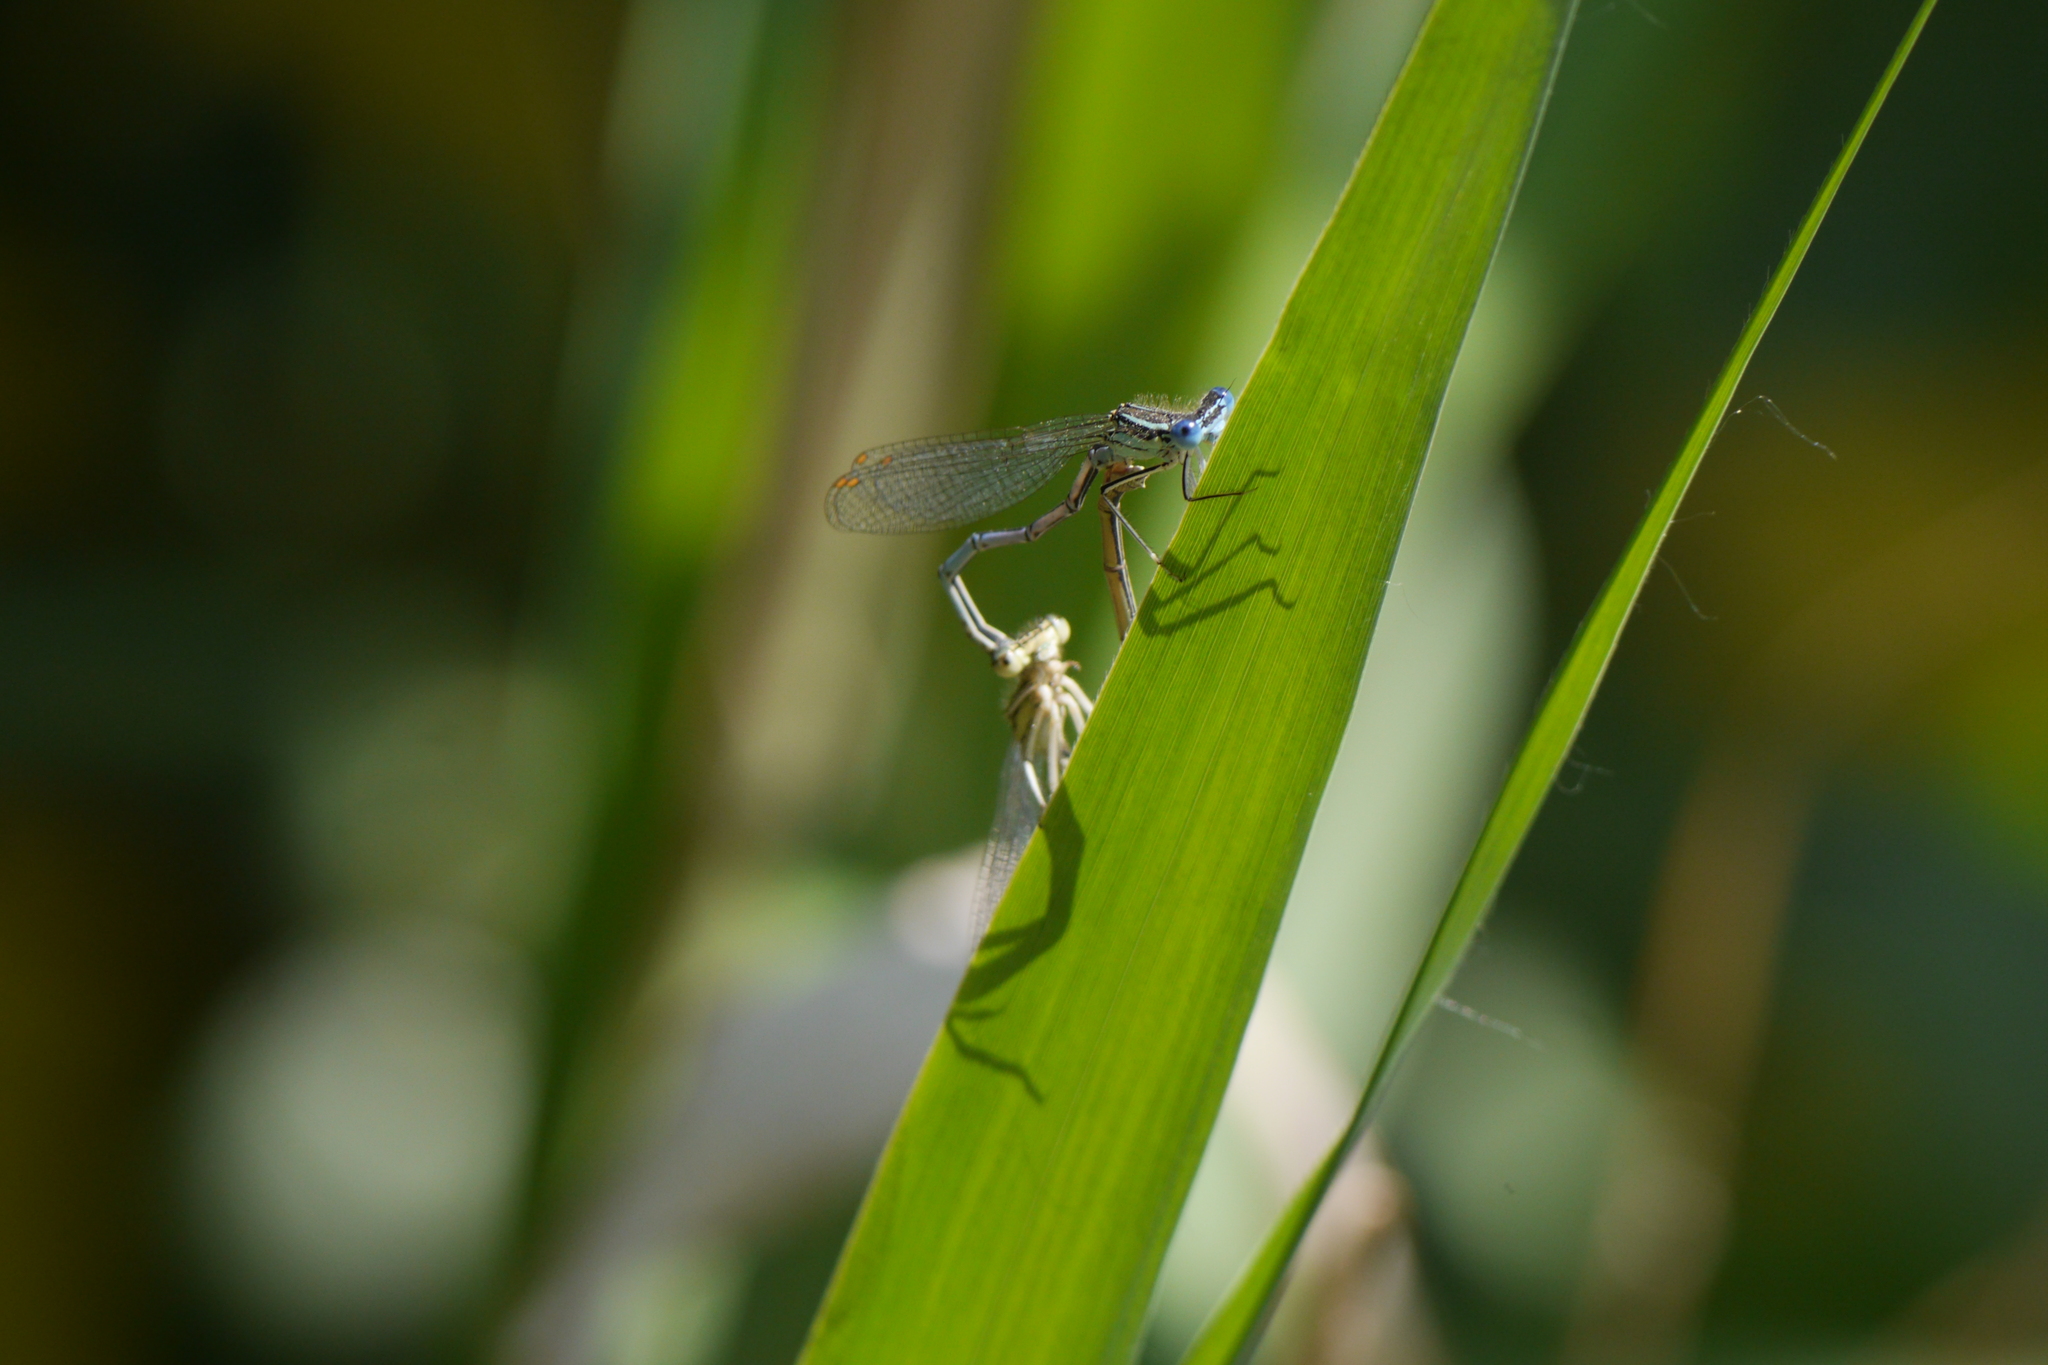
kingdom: Animalia
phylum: Arthropoda
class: Insecta
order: Odonata
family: Platycnemididae
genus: Platycnemis
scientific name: Platycnemis pennipes
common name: White-legged damselfly
